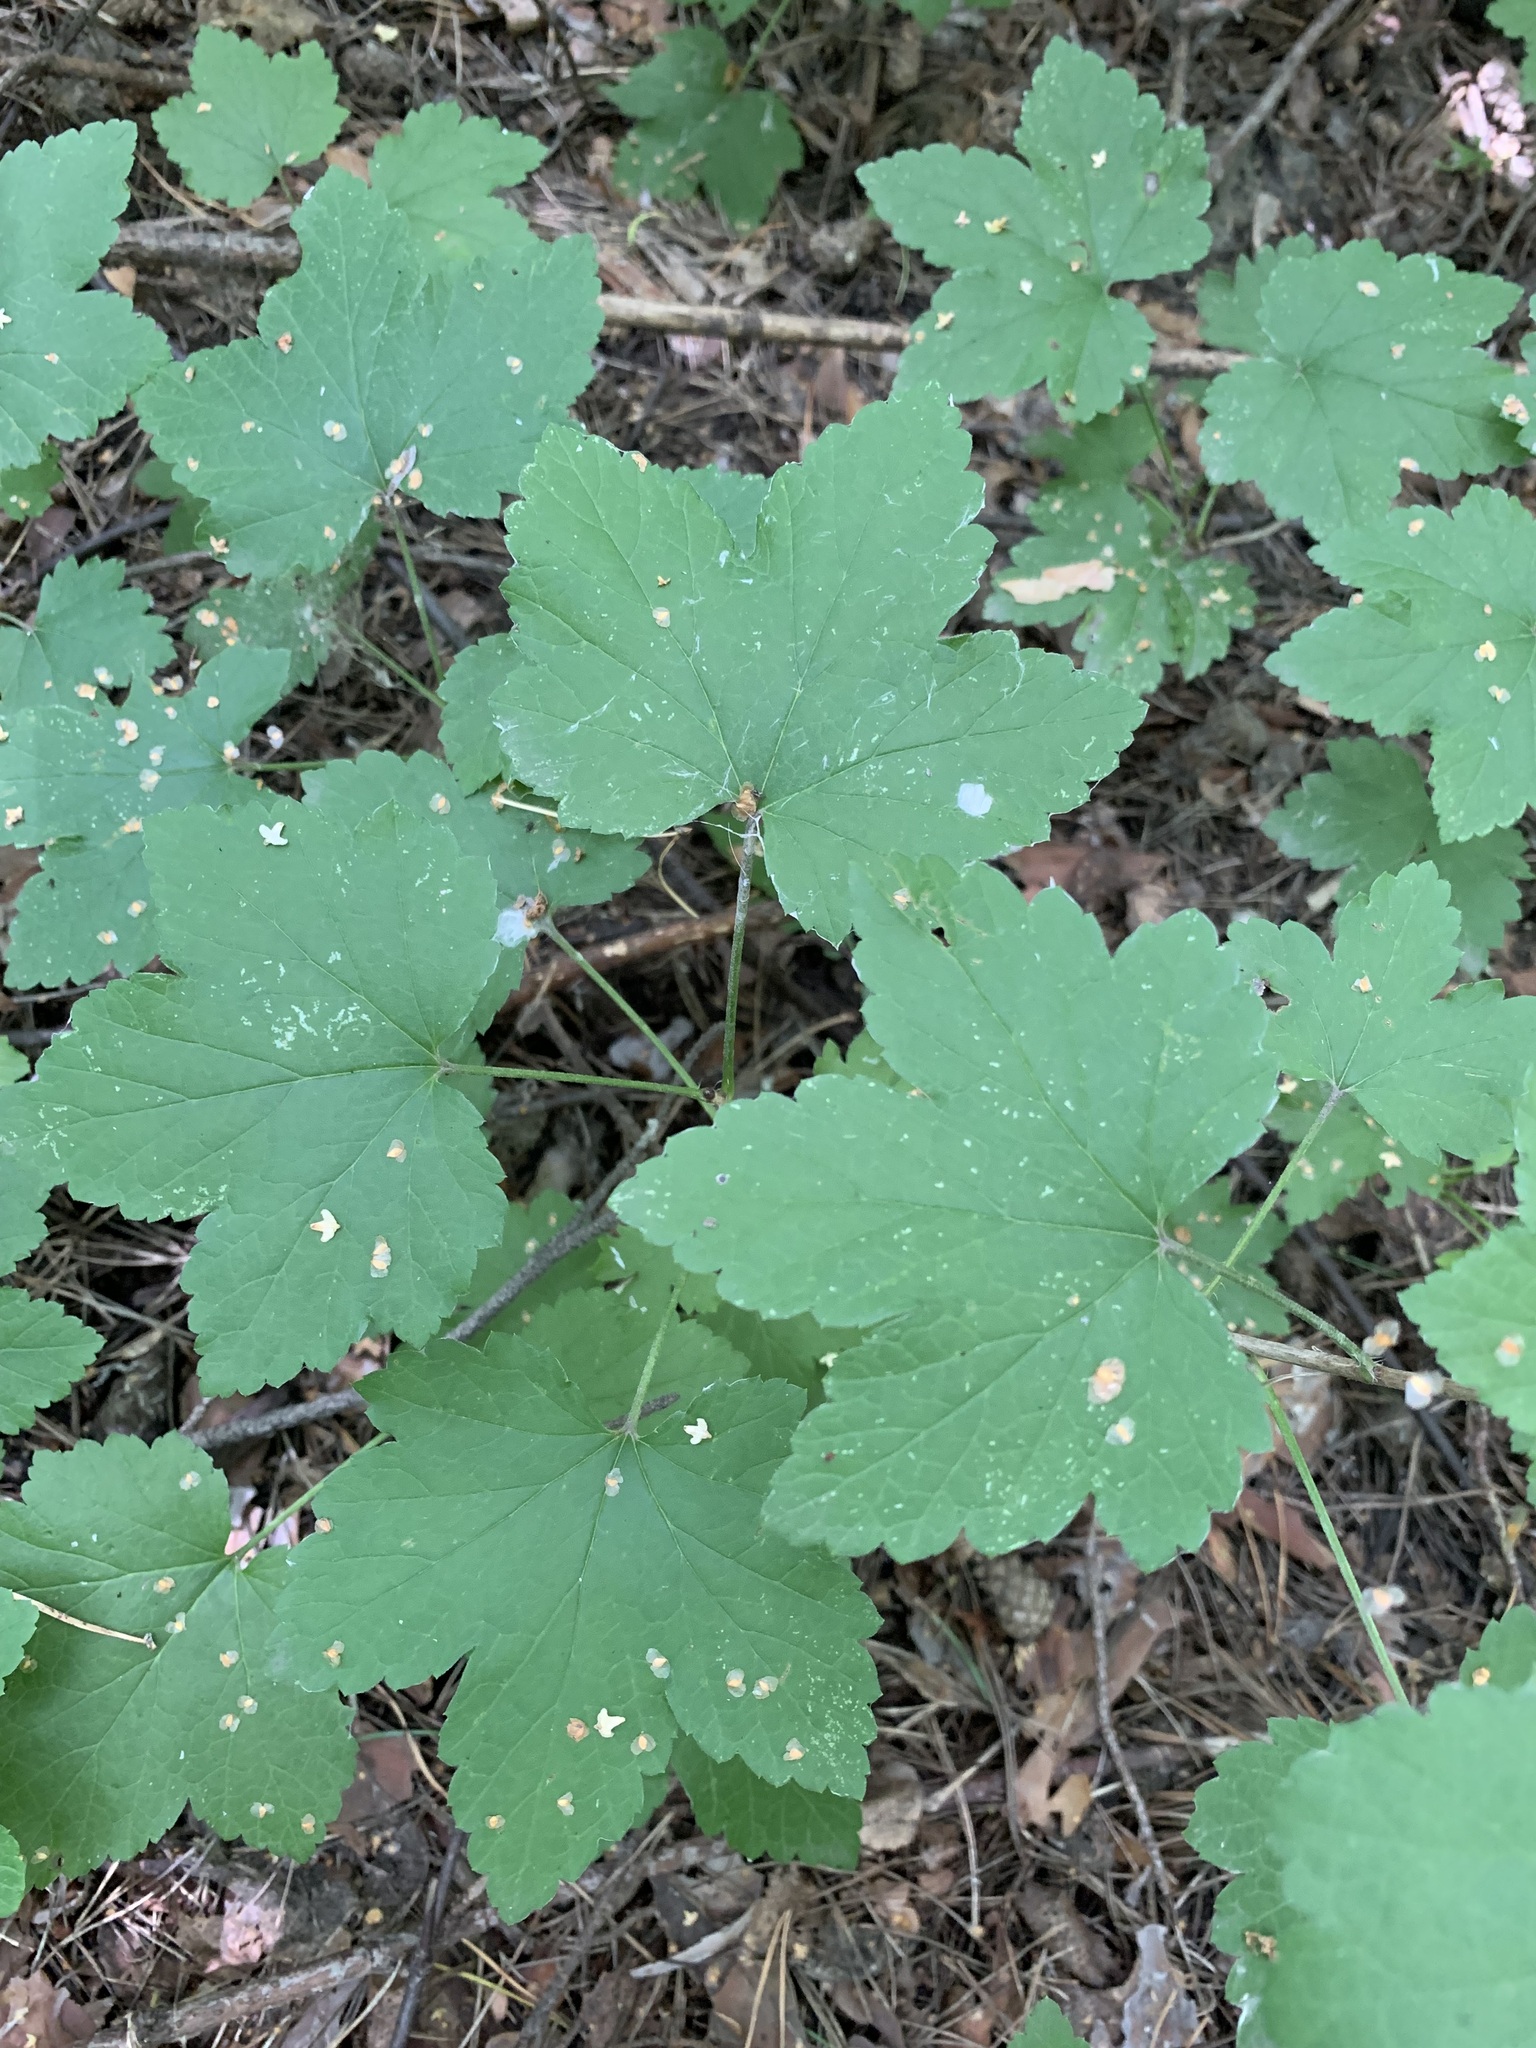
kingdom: Plantae
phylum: Tracheophyta
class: Magnoliopsida
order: Saxifragales
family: Grossulariaceae
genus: Ribes
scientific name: Ribes spicatum
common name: Downy currant
